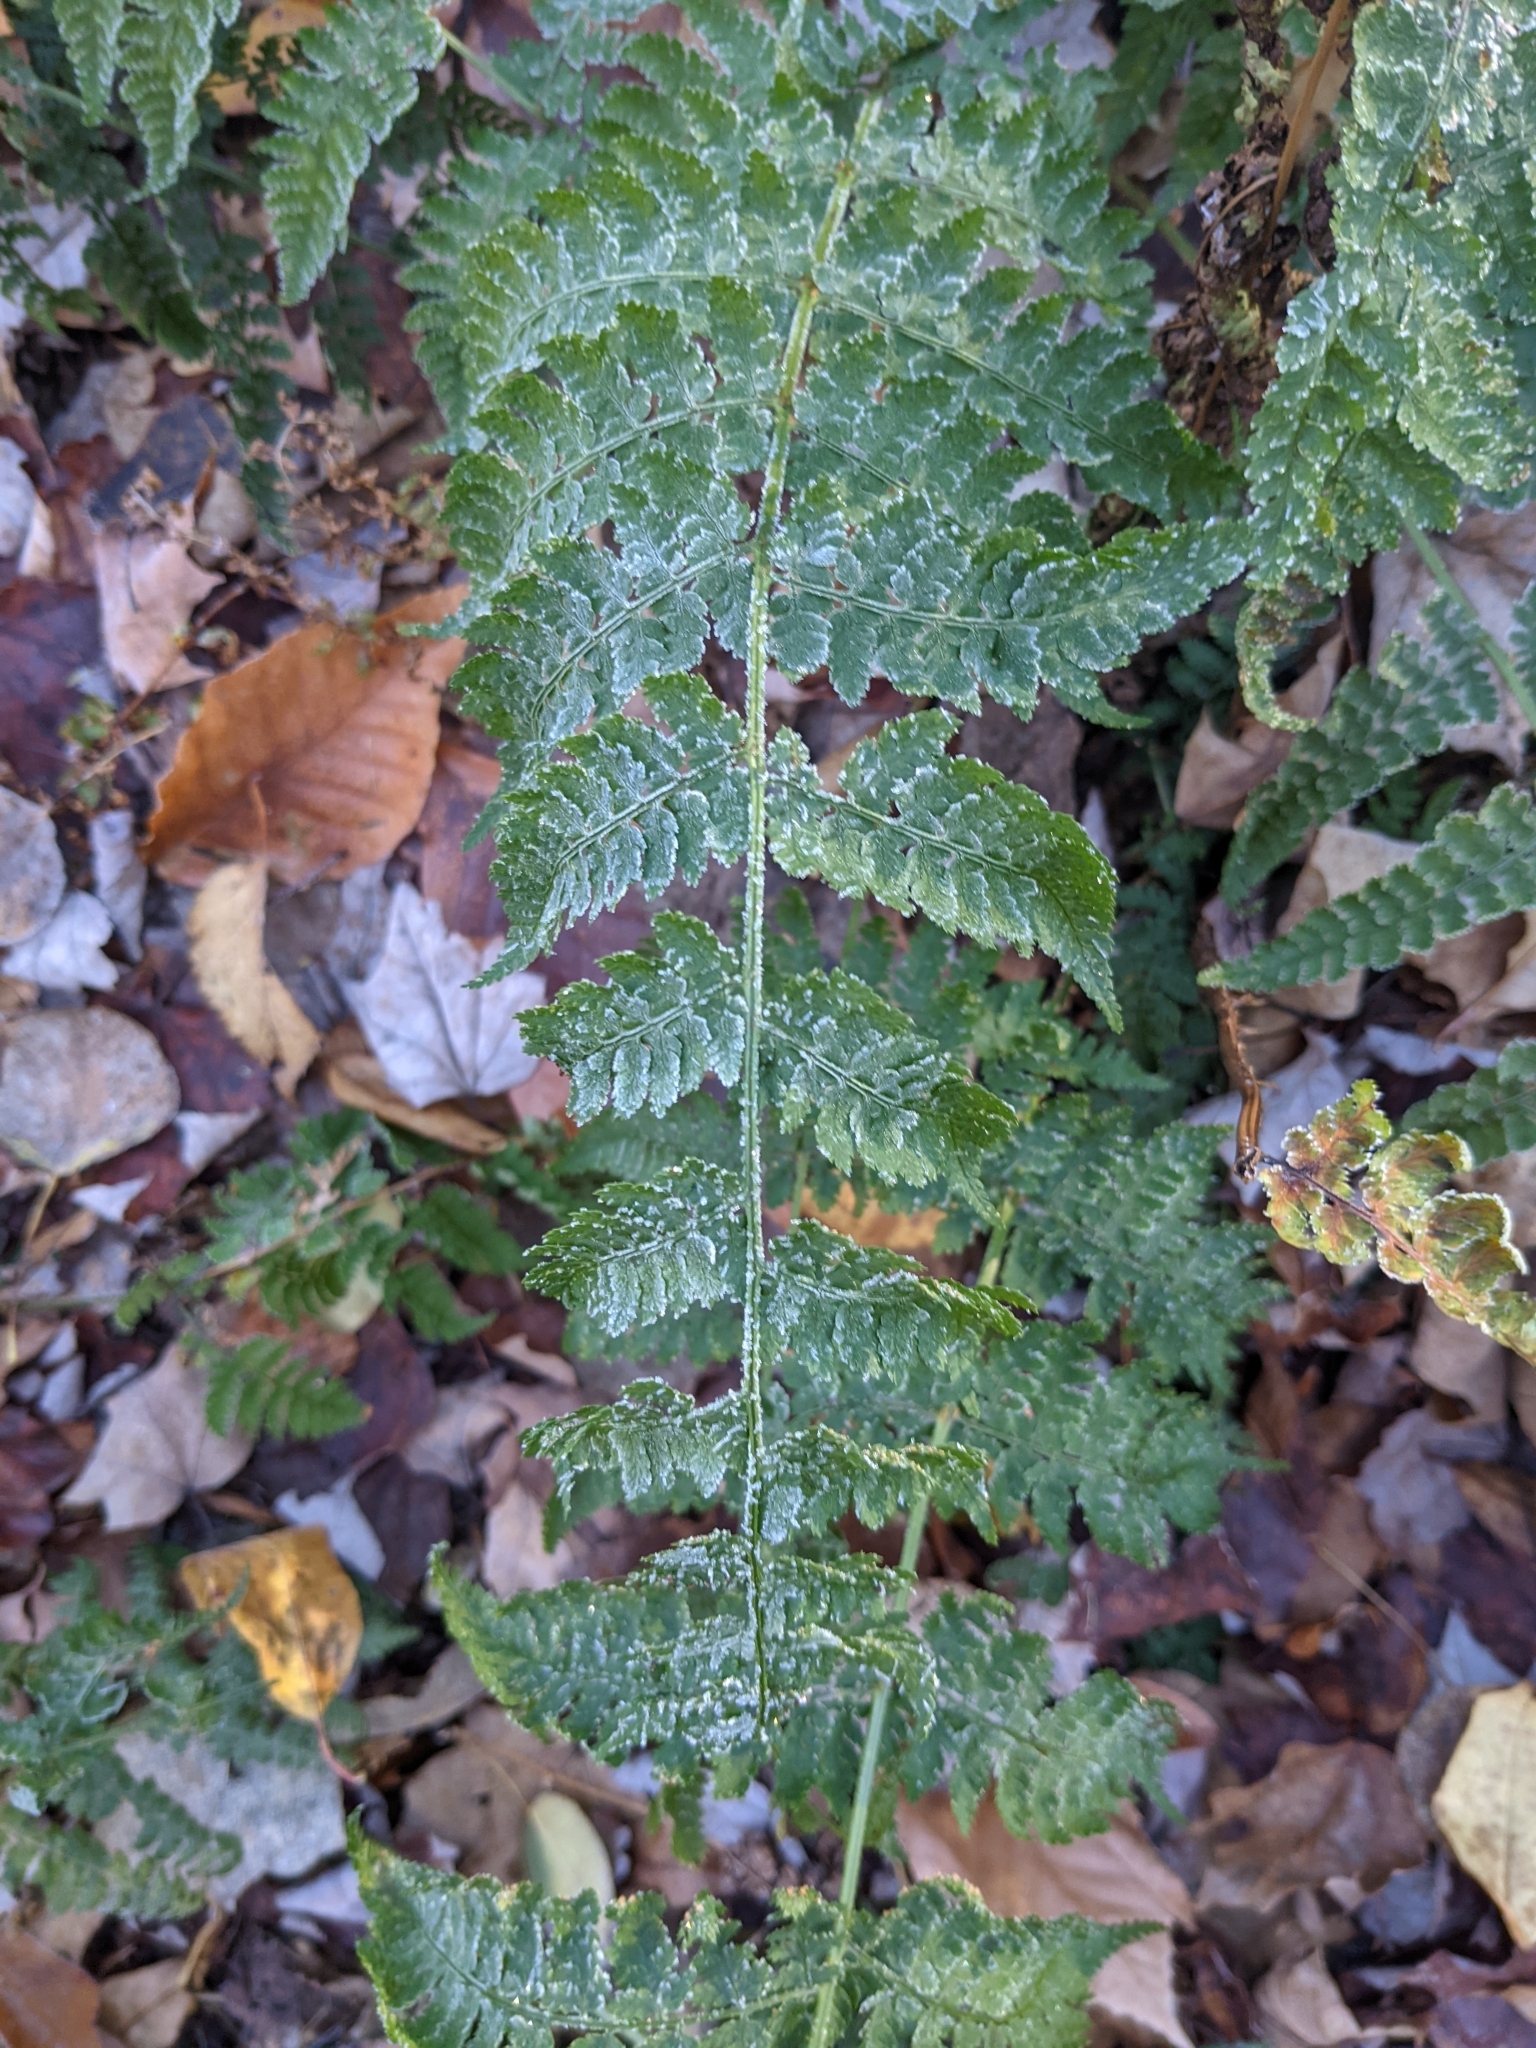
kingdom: Plantae
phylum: Tracheophyta
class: Polypodiopsida
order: Polypodiales
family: Dryopteridaceae
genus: Dryopteris
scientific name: Dryopteris intermedia
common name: Evergreen wood fern
